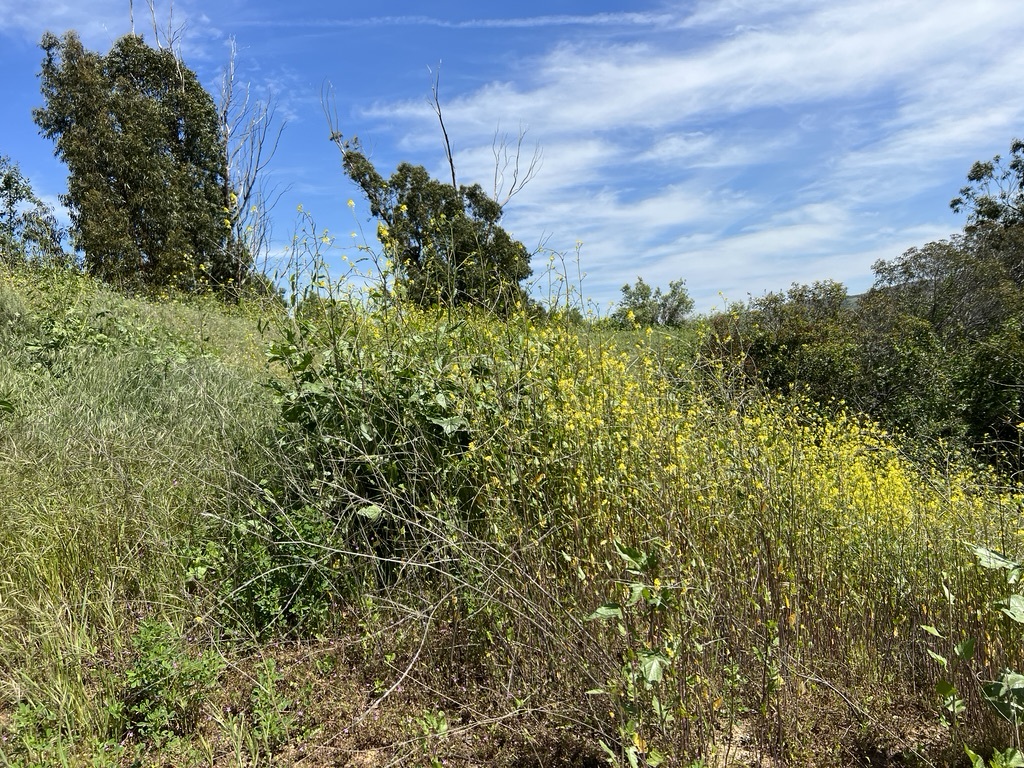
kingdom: Plantae
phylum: Tracheophyta
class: Magnoliopsida
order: Brassicales
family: Brassicaceae
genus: Brassica
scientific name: Brassica nigra
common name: Black mustard
